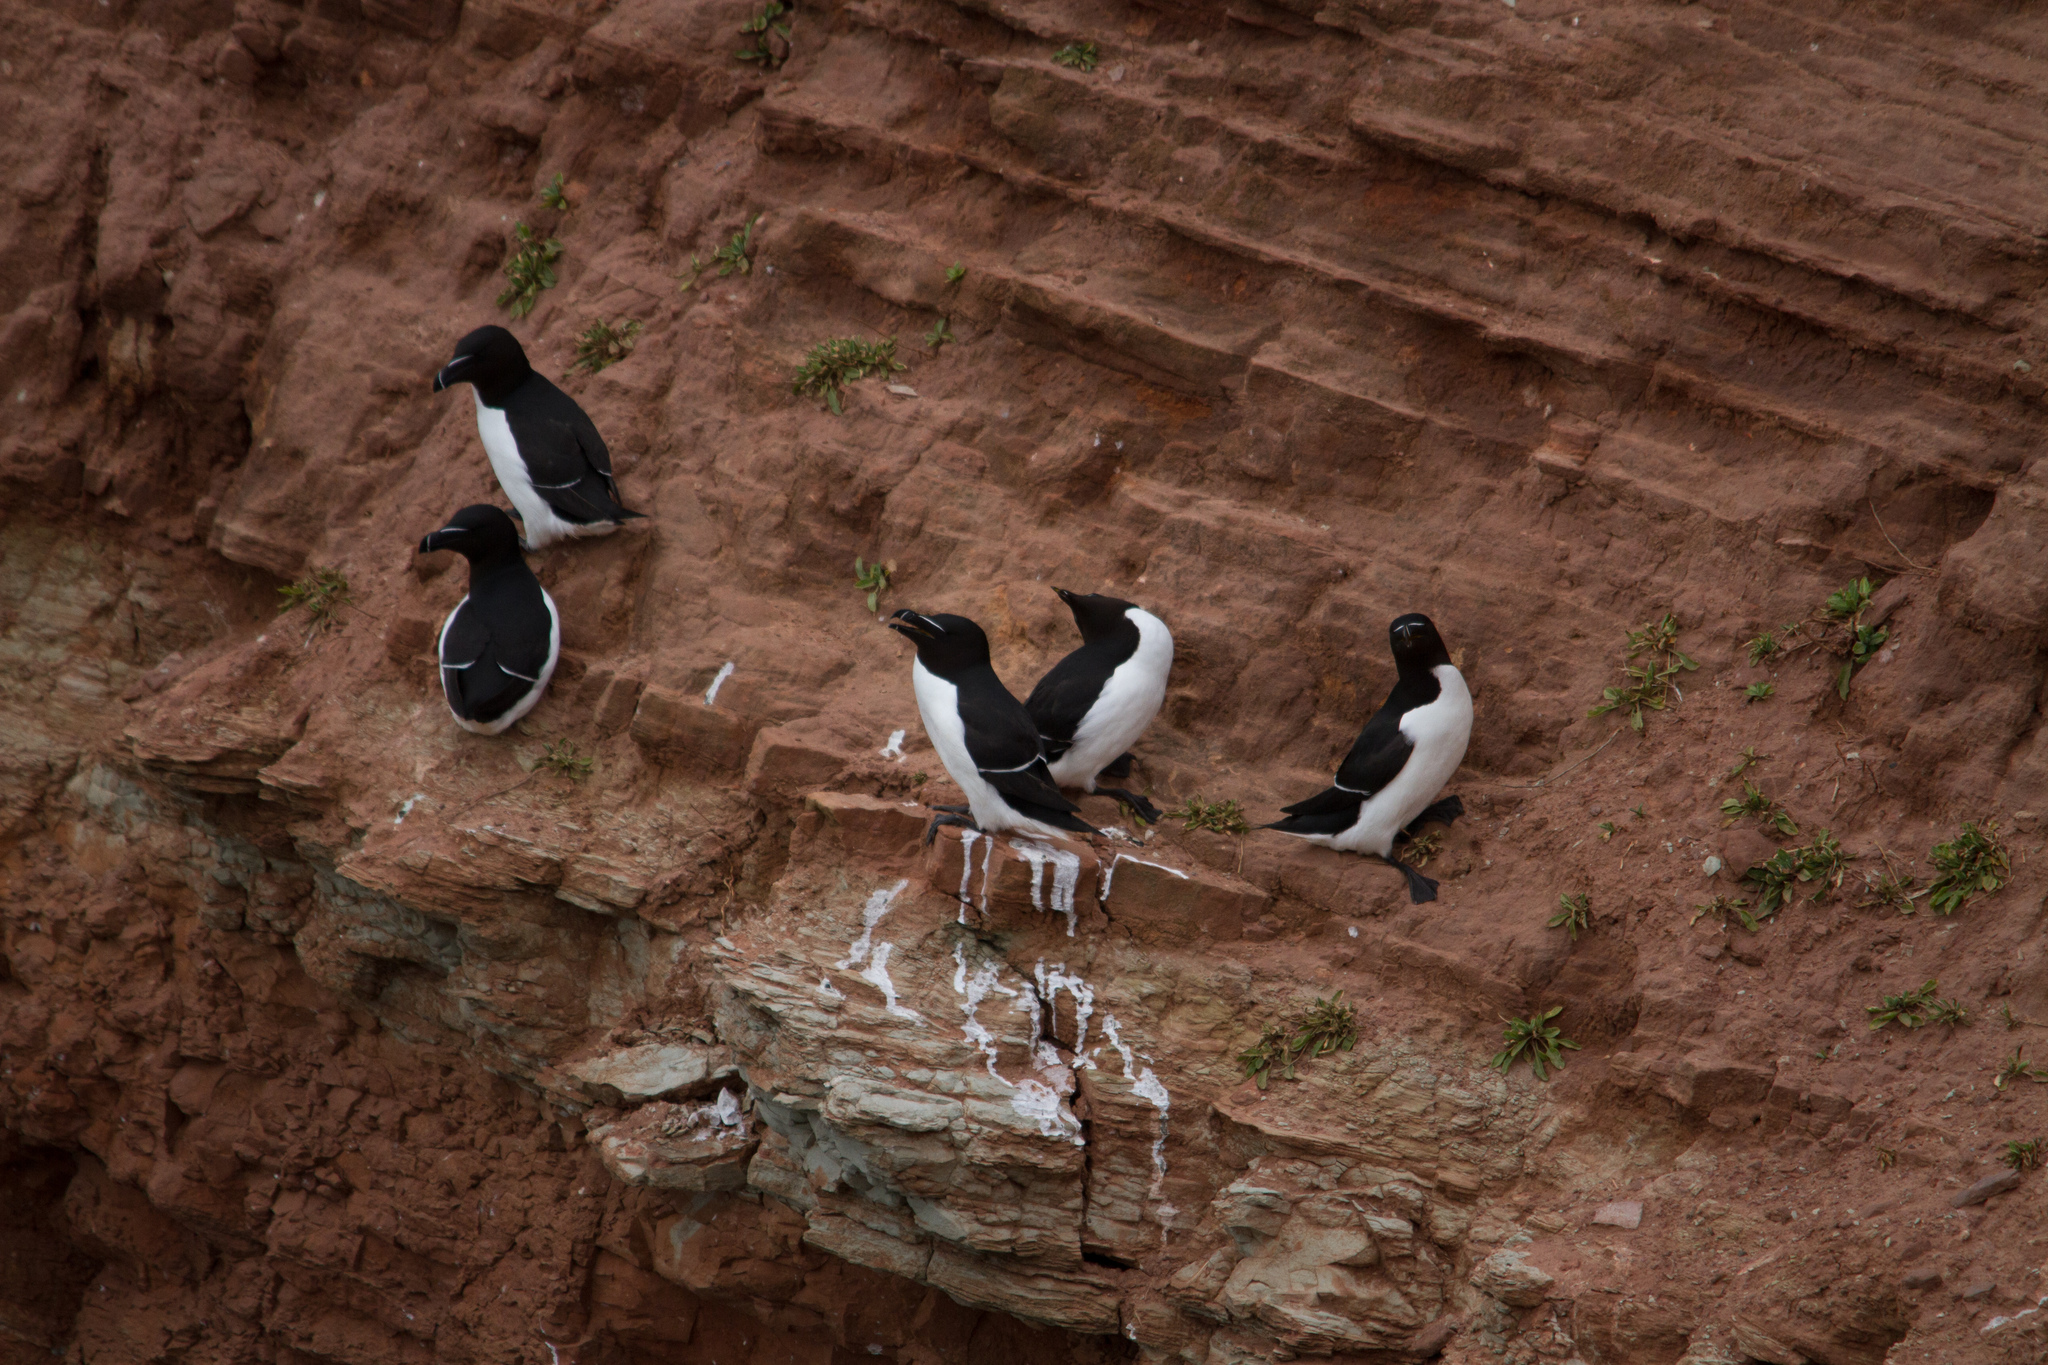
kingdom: Animalia
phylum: Chordata
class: Aves
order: Charadriiformes
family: Alcidae
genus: Alca
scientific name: Alca torda
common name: Razorbill
